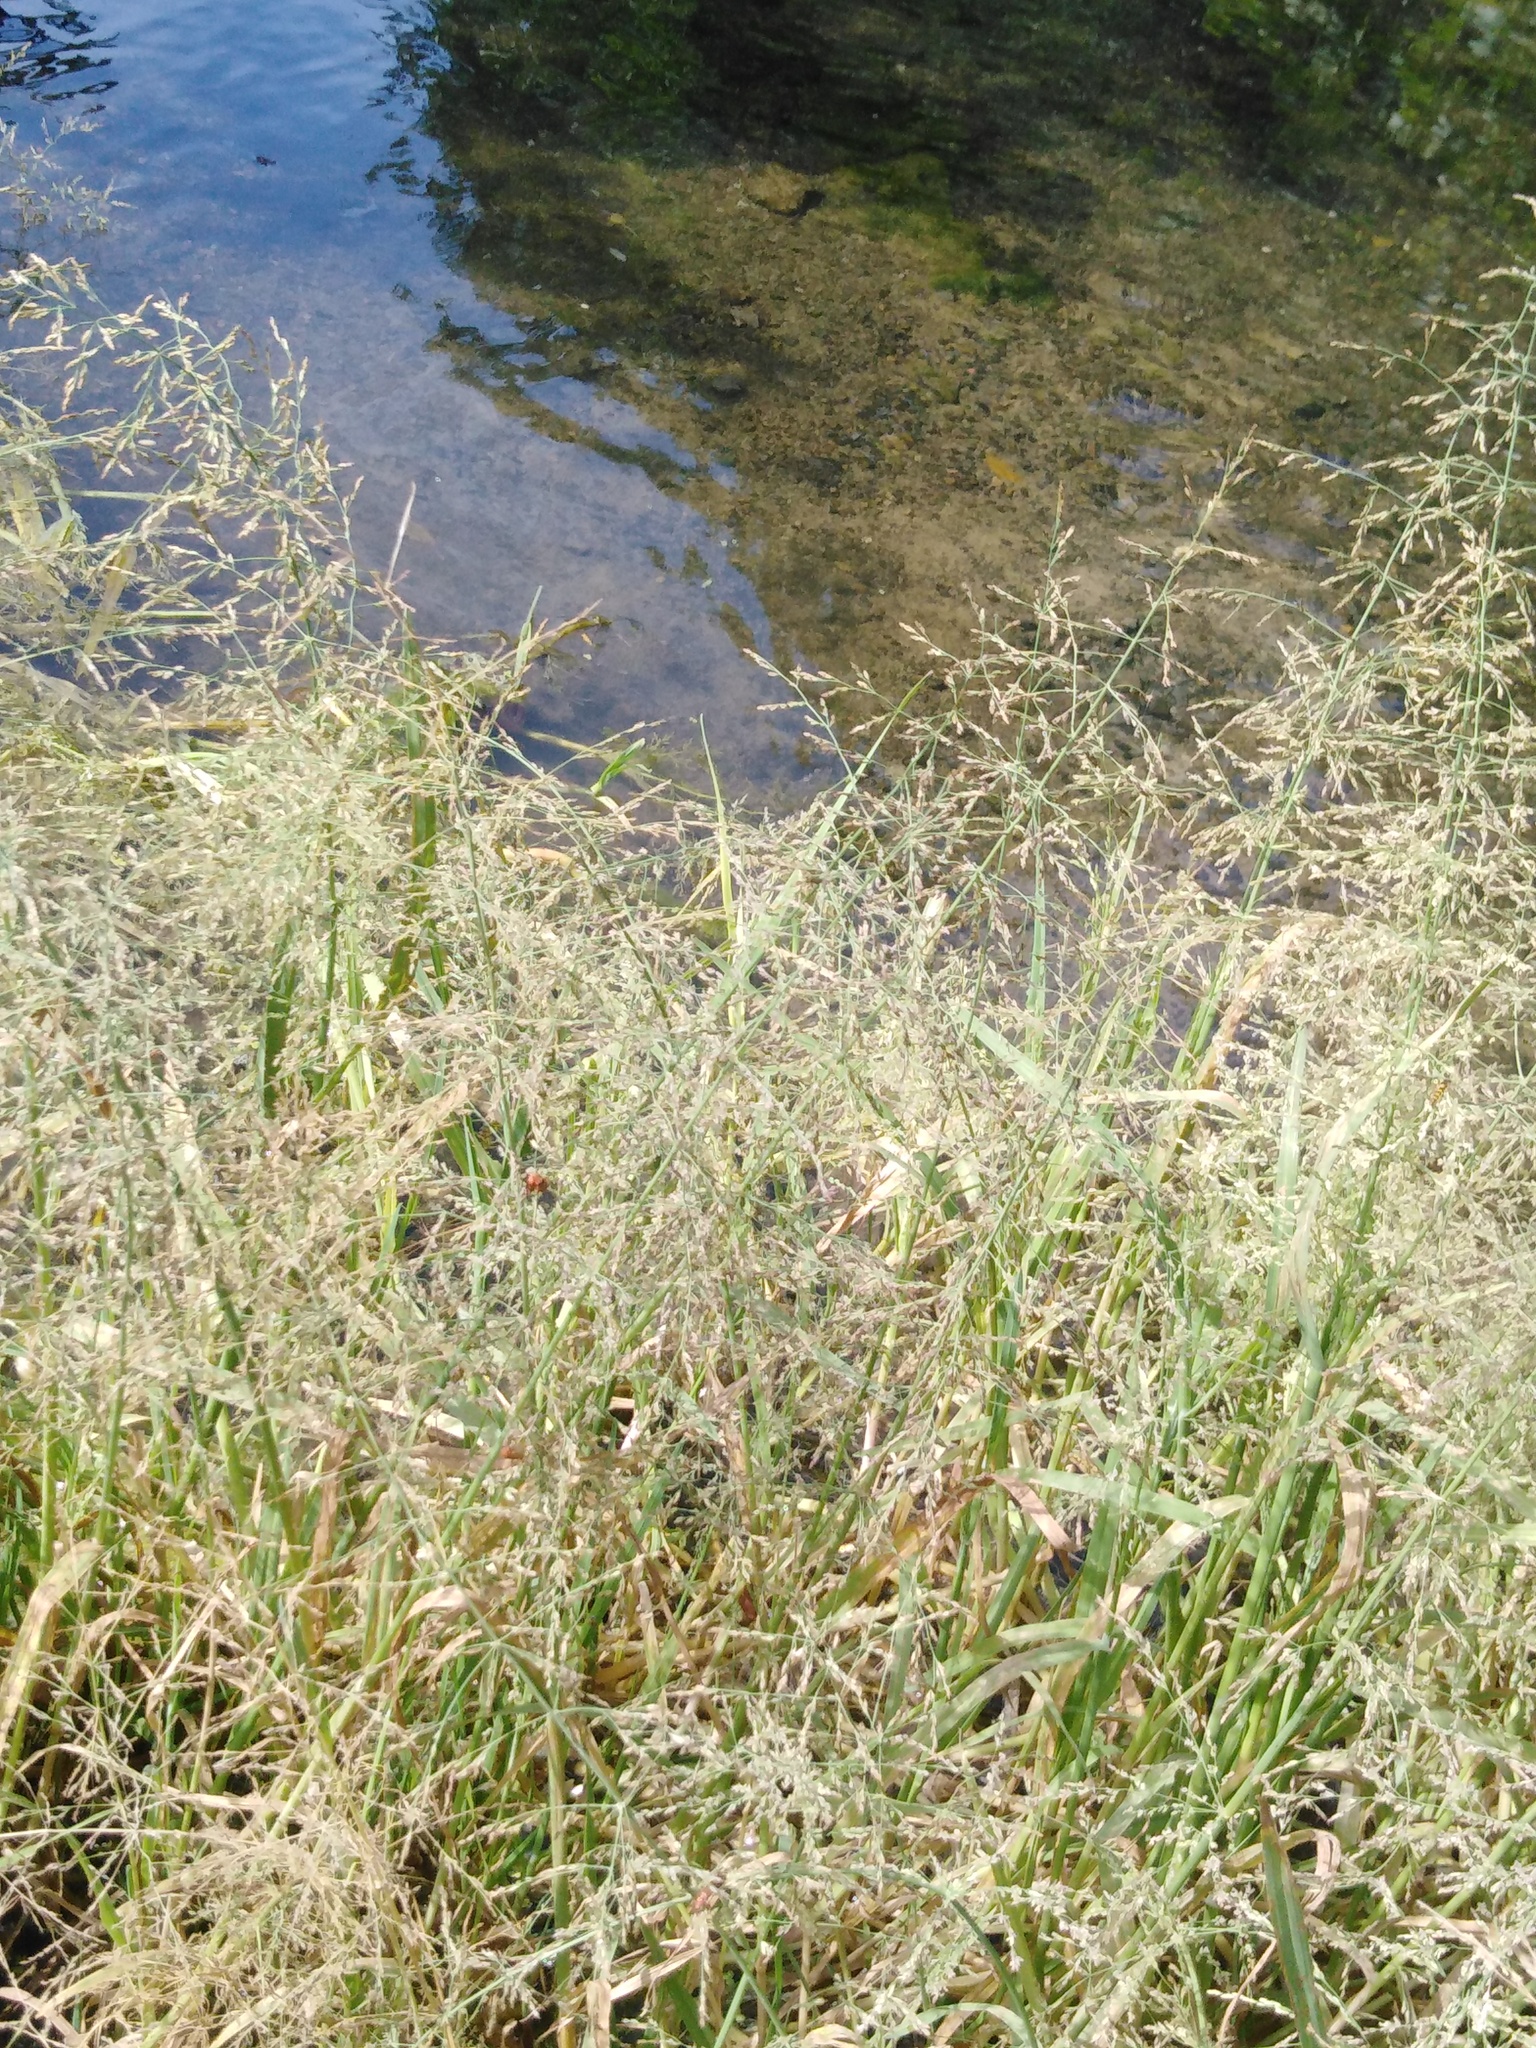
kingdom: Plantae
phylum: Tracheophyta
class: Liliopsida
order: Poales
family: Poaceae
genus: Catabrosa
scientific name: Catabrosa aquatica
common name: Whorl-grass
